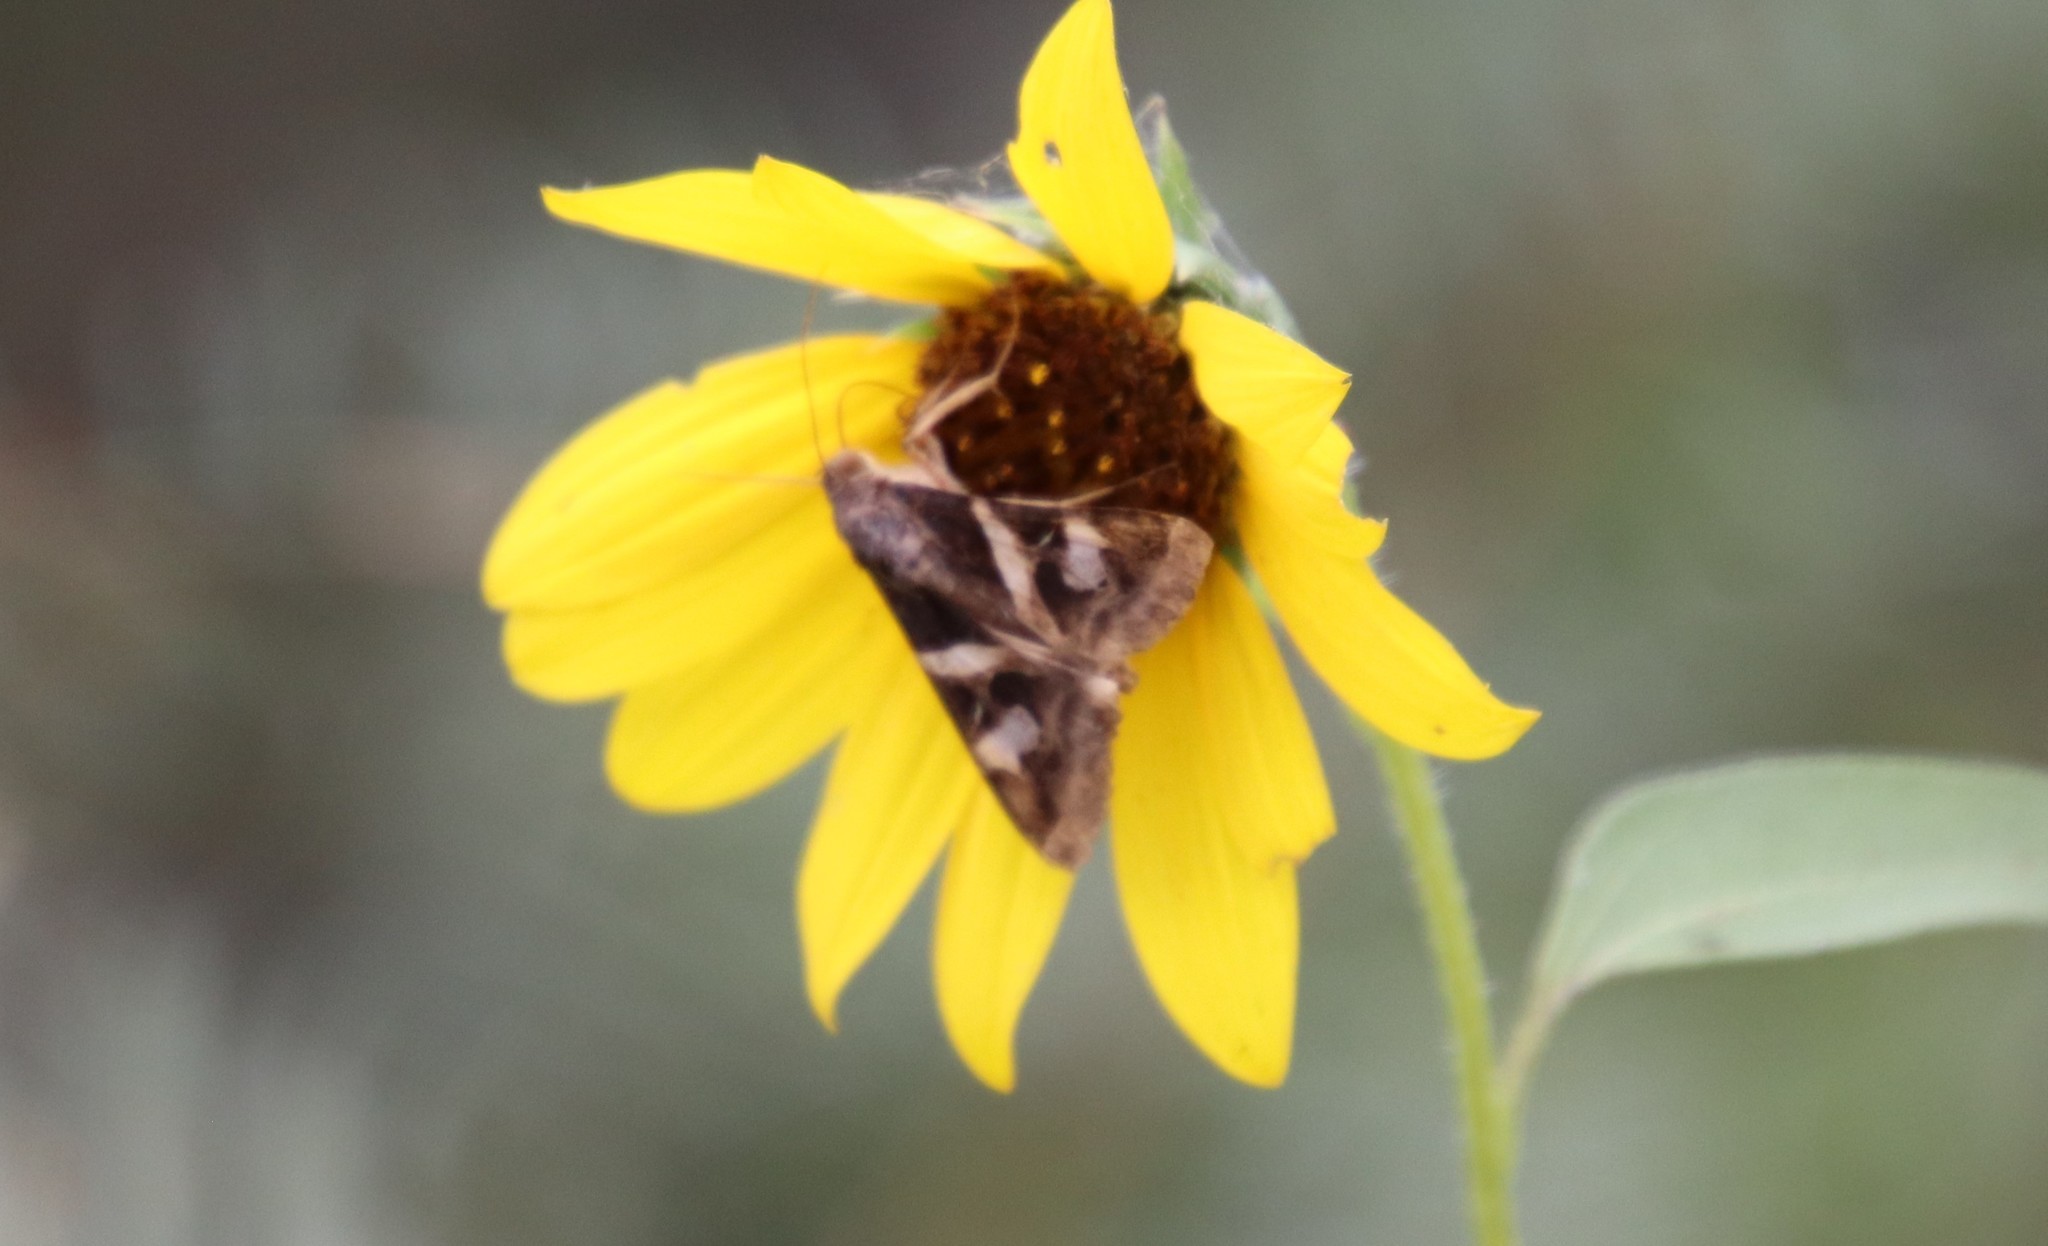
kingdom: Animalia
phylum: Arthropoda
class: Insecta
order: Lepidoptera
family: Erebidae
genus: Melipotis
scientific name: Melipotis indomita
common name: Moth
